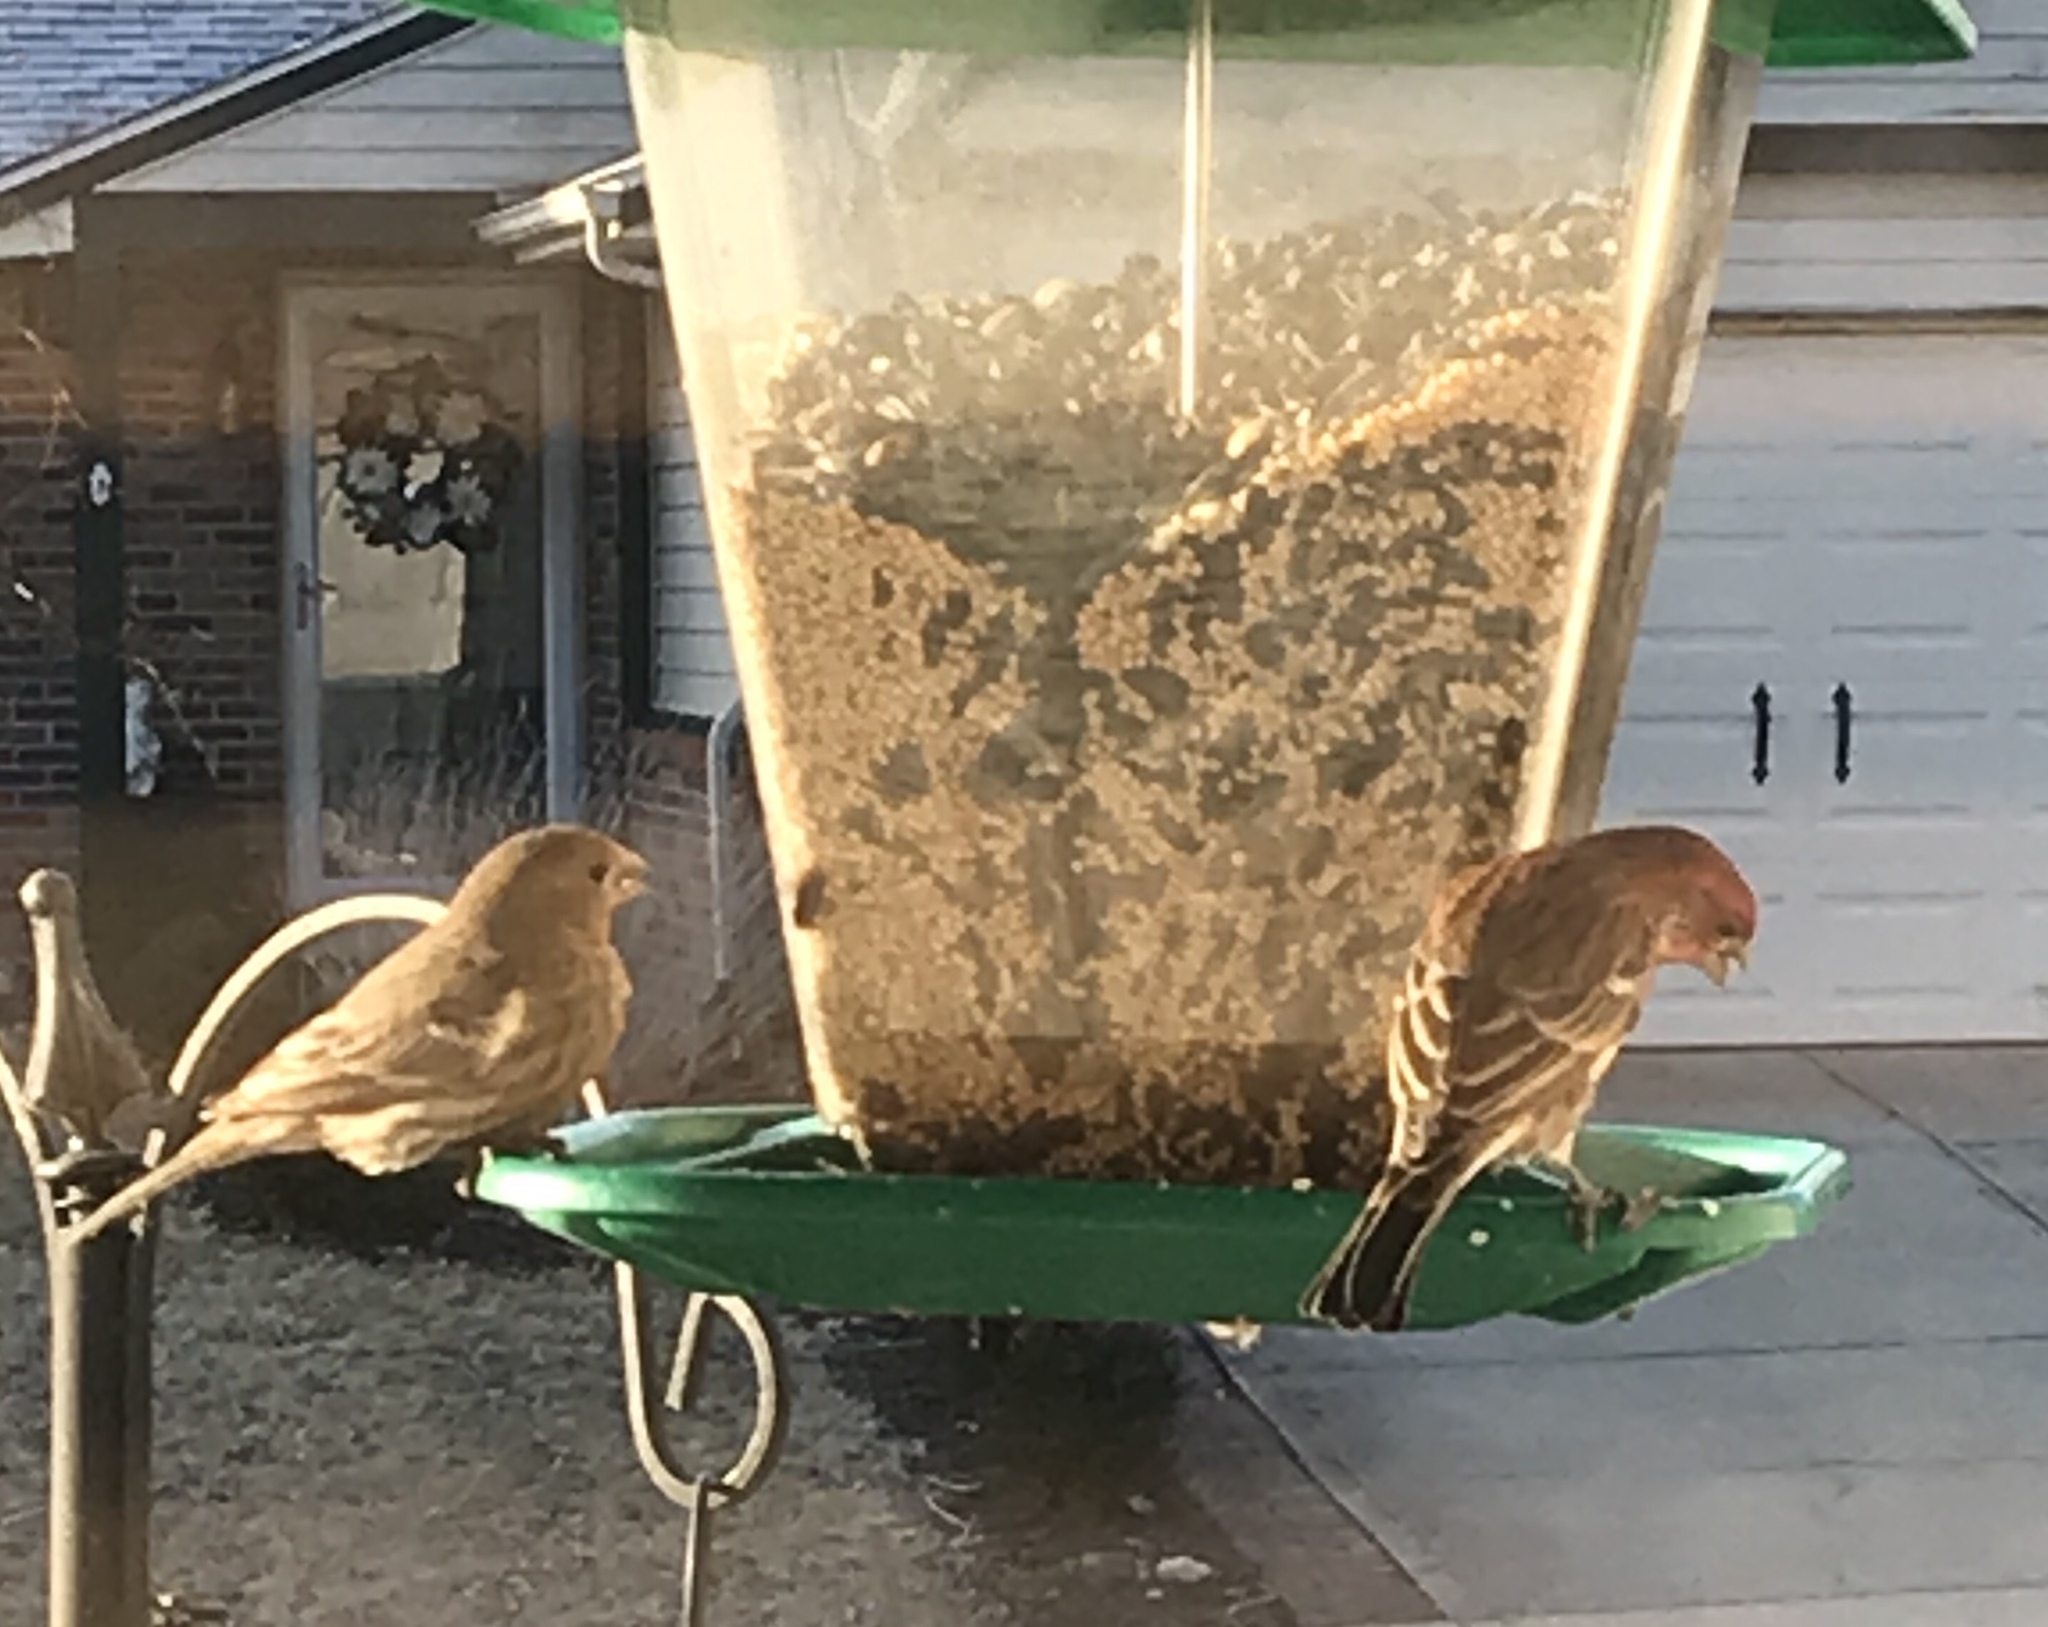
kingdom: Animalia
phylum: Chordata
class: Aves
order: Passeriformes
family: Fringillidae
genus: Haemorhous
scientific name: Haemorhous mexicanus
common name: House finch
